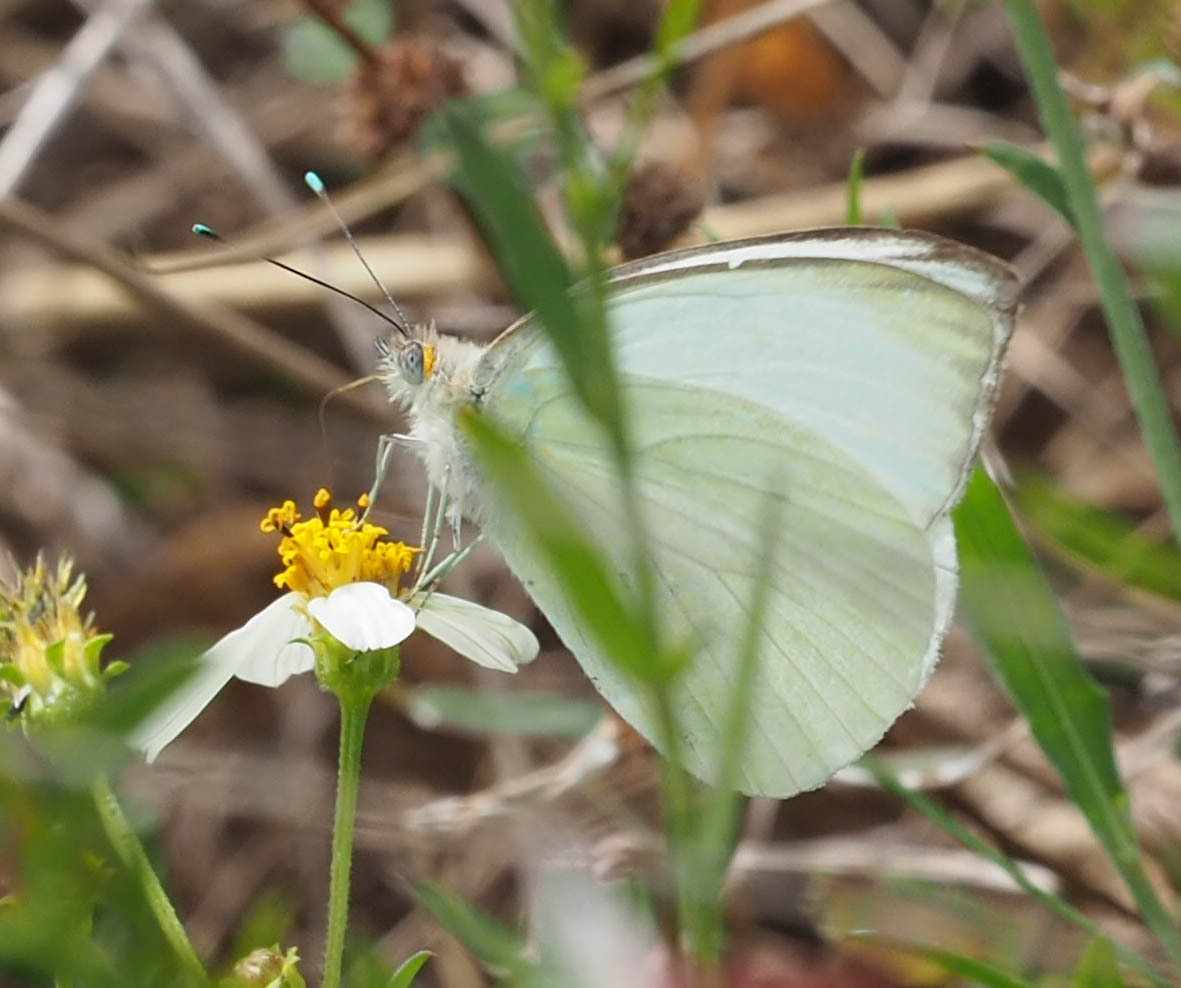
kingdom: Animalia
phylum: Arthropoda
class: Insecta
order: Lepidoptera
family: Pieridae
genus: Ascia
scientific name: Ascia monuste
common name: Great southern white
